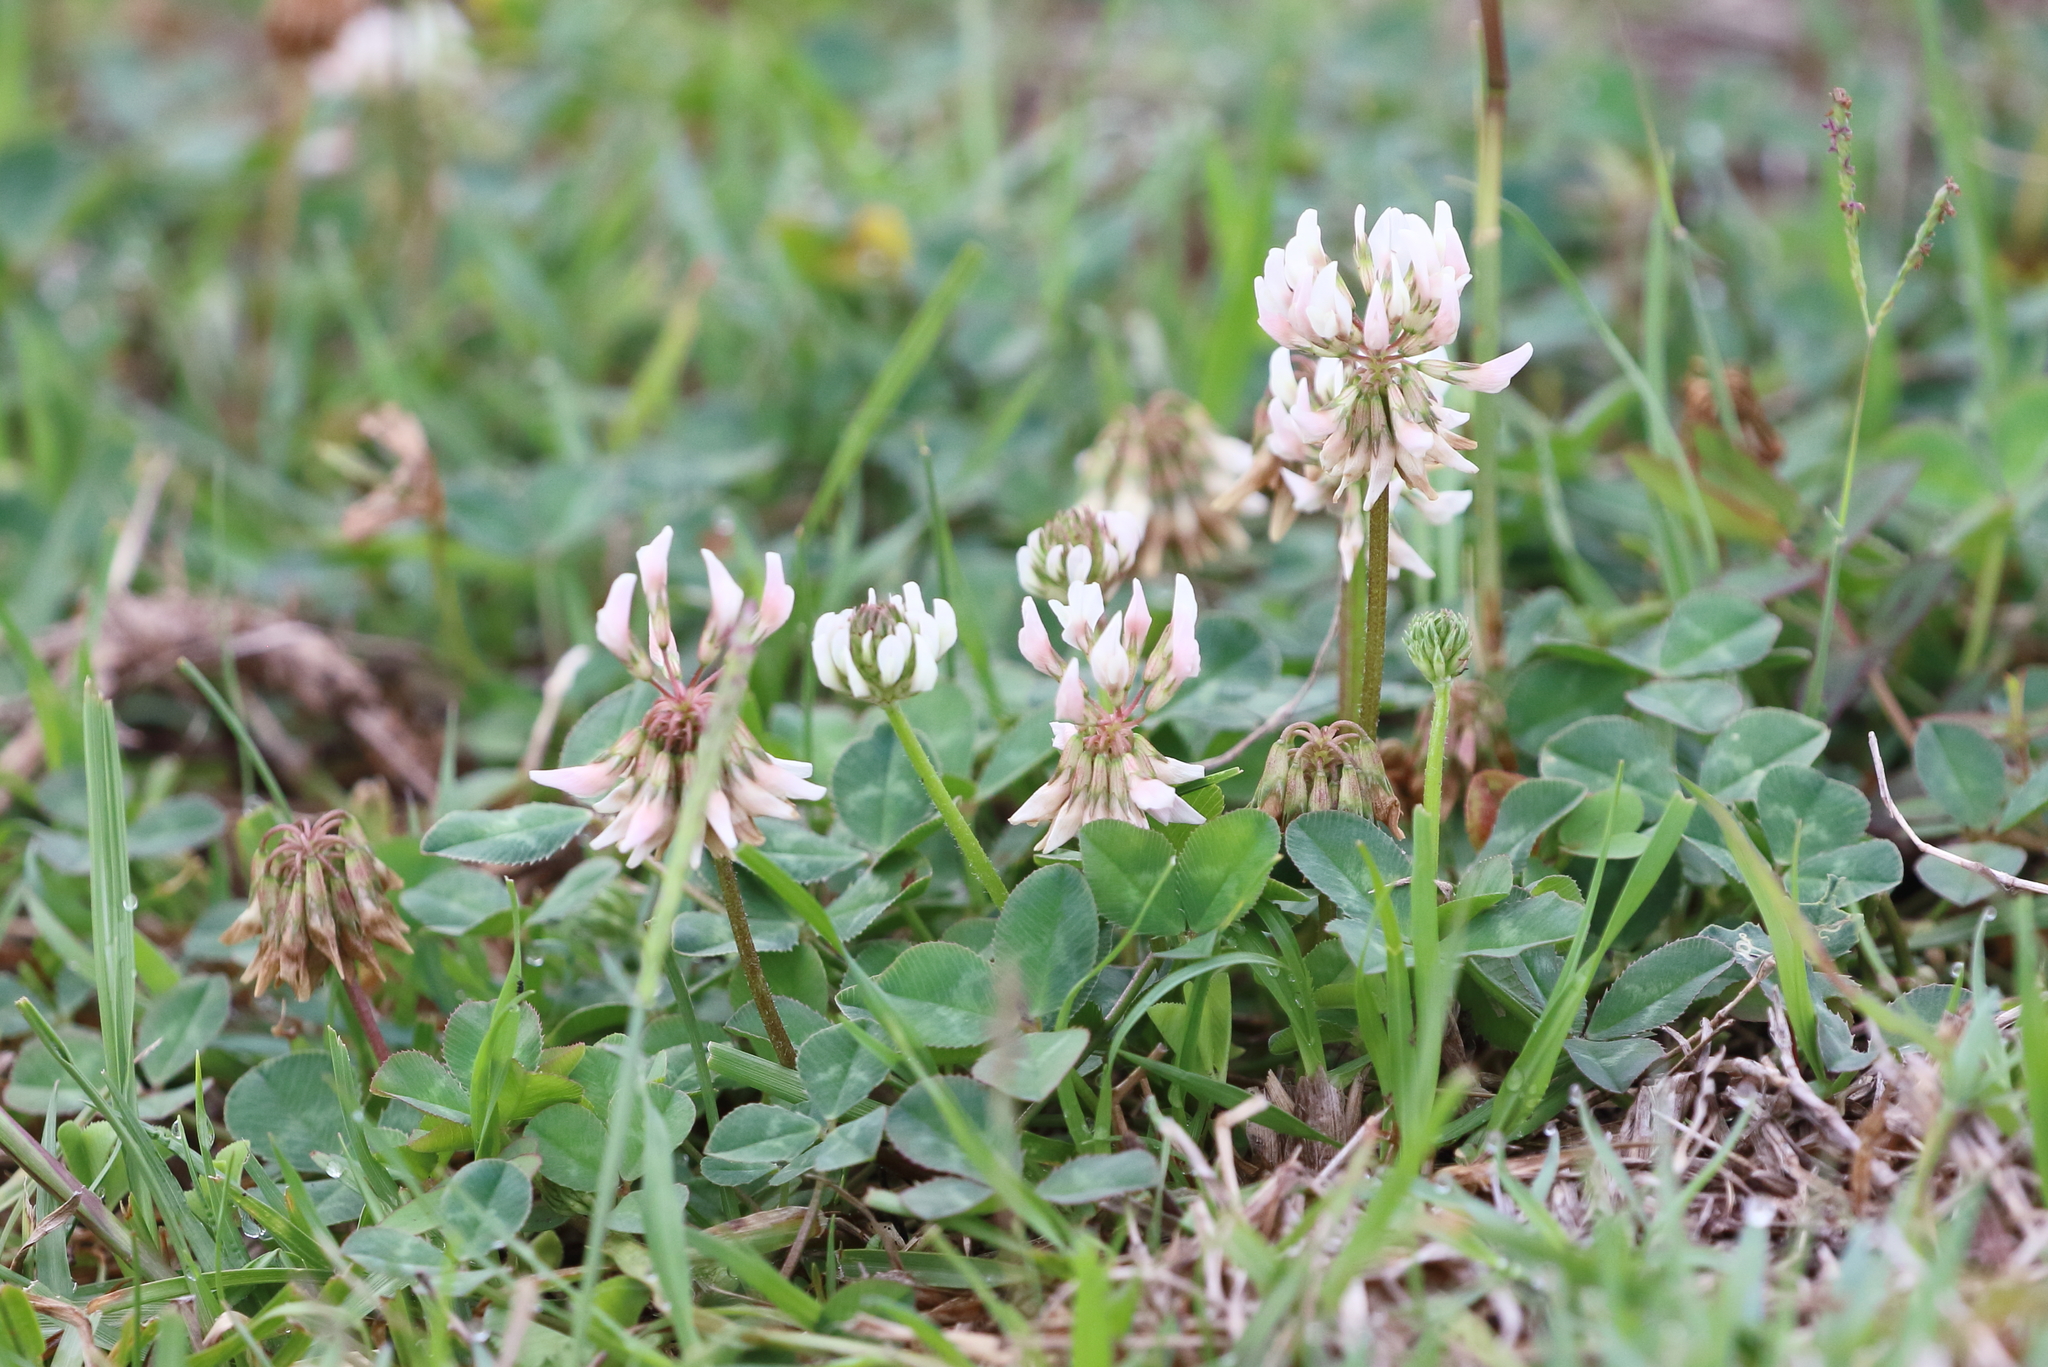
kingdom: Plantae
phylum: Tracheophyta
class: Magnoliopsida
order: Fabales
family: Fabaceae
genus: Trifolium
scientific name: Trifolium repens
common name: White clover
